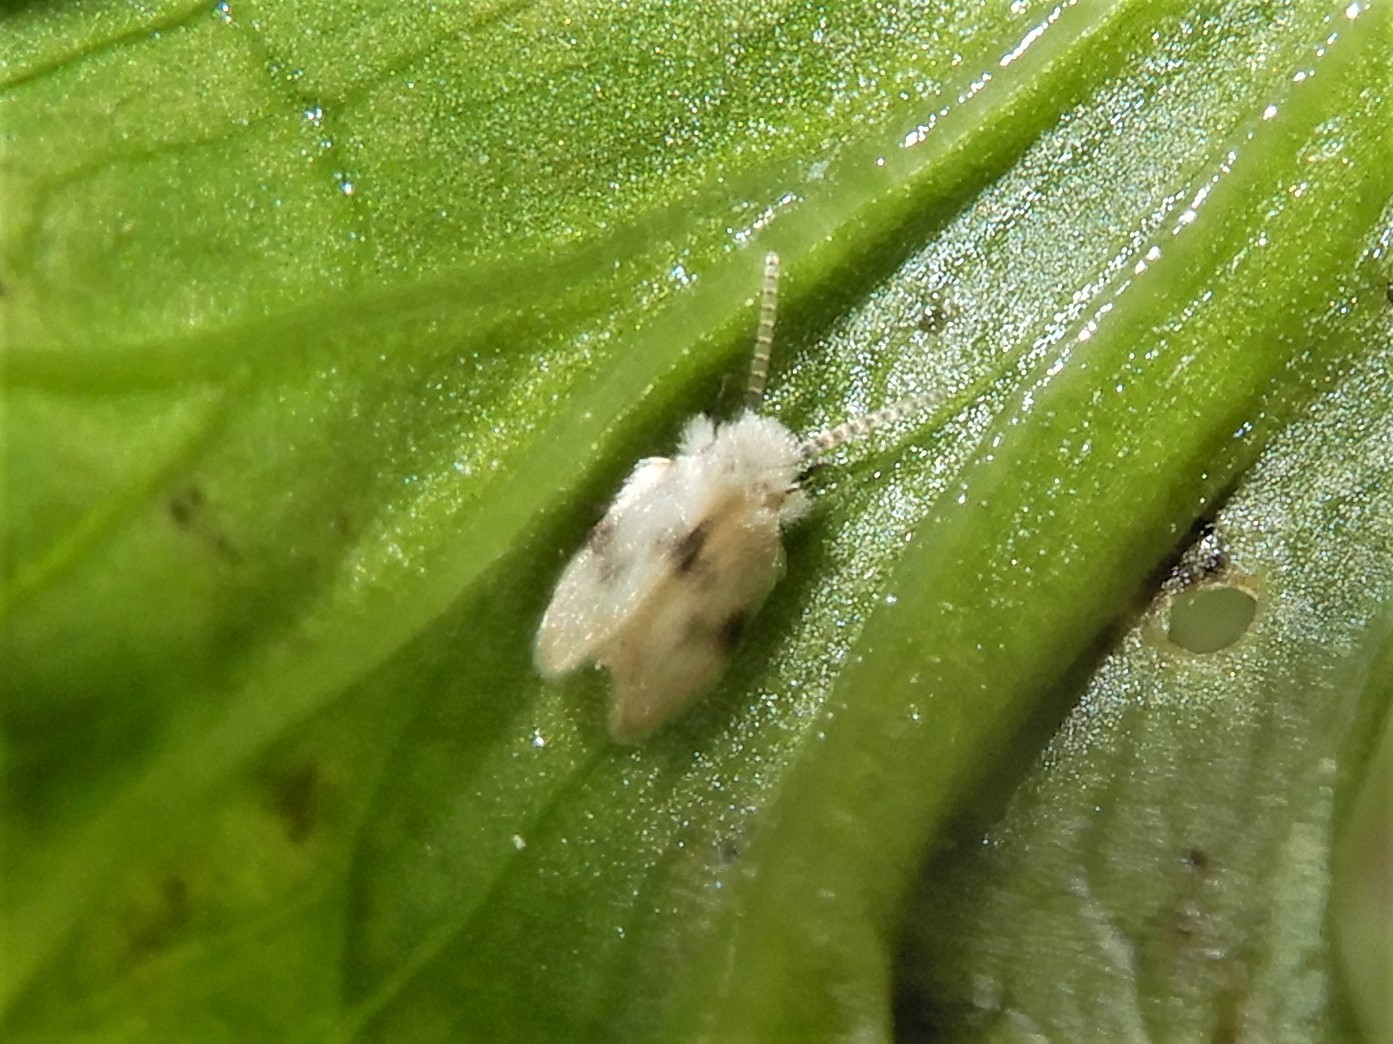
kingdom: Animalia
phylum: Arthropoda
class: Insecta
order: Diptera
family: Psychodidae
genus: Psychoda
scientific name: Psychoda sigma
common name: Moth fly
